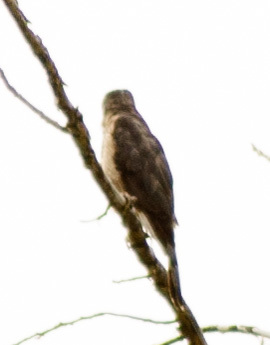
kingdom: Animalia
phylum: Chordata
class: Aves
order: Accipitriformes
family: Accipitridae
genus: Accipiter
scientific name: Accipiter cooperii
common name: Cooper's hawk
